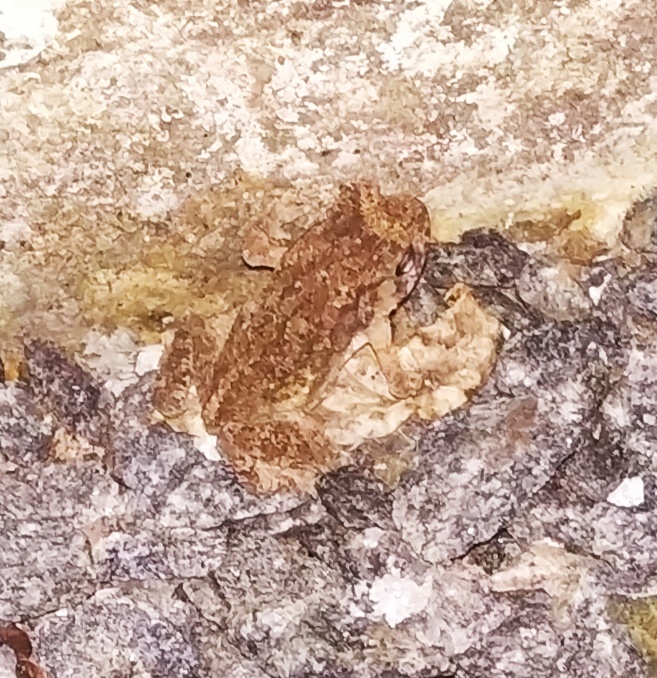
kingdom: Animalia
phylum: Chordata
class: Amphibia
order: Anura
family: Bufonidae
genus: Duttaphrynus
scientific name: Duttaphrynus melanostictus
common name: Common sunda toad
